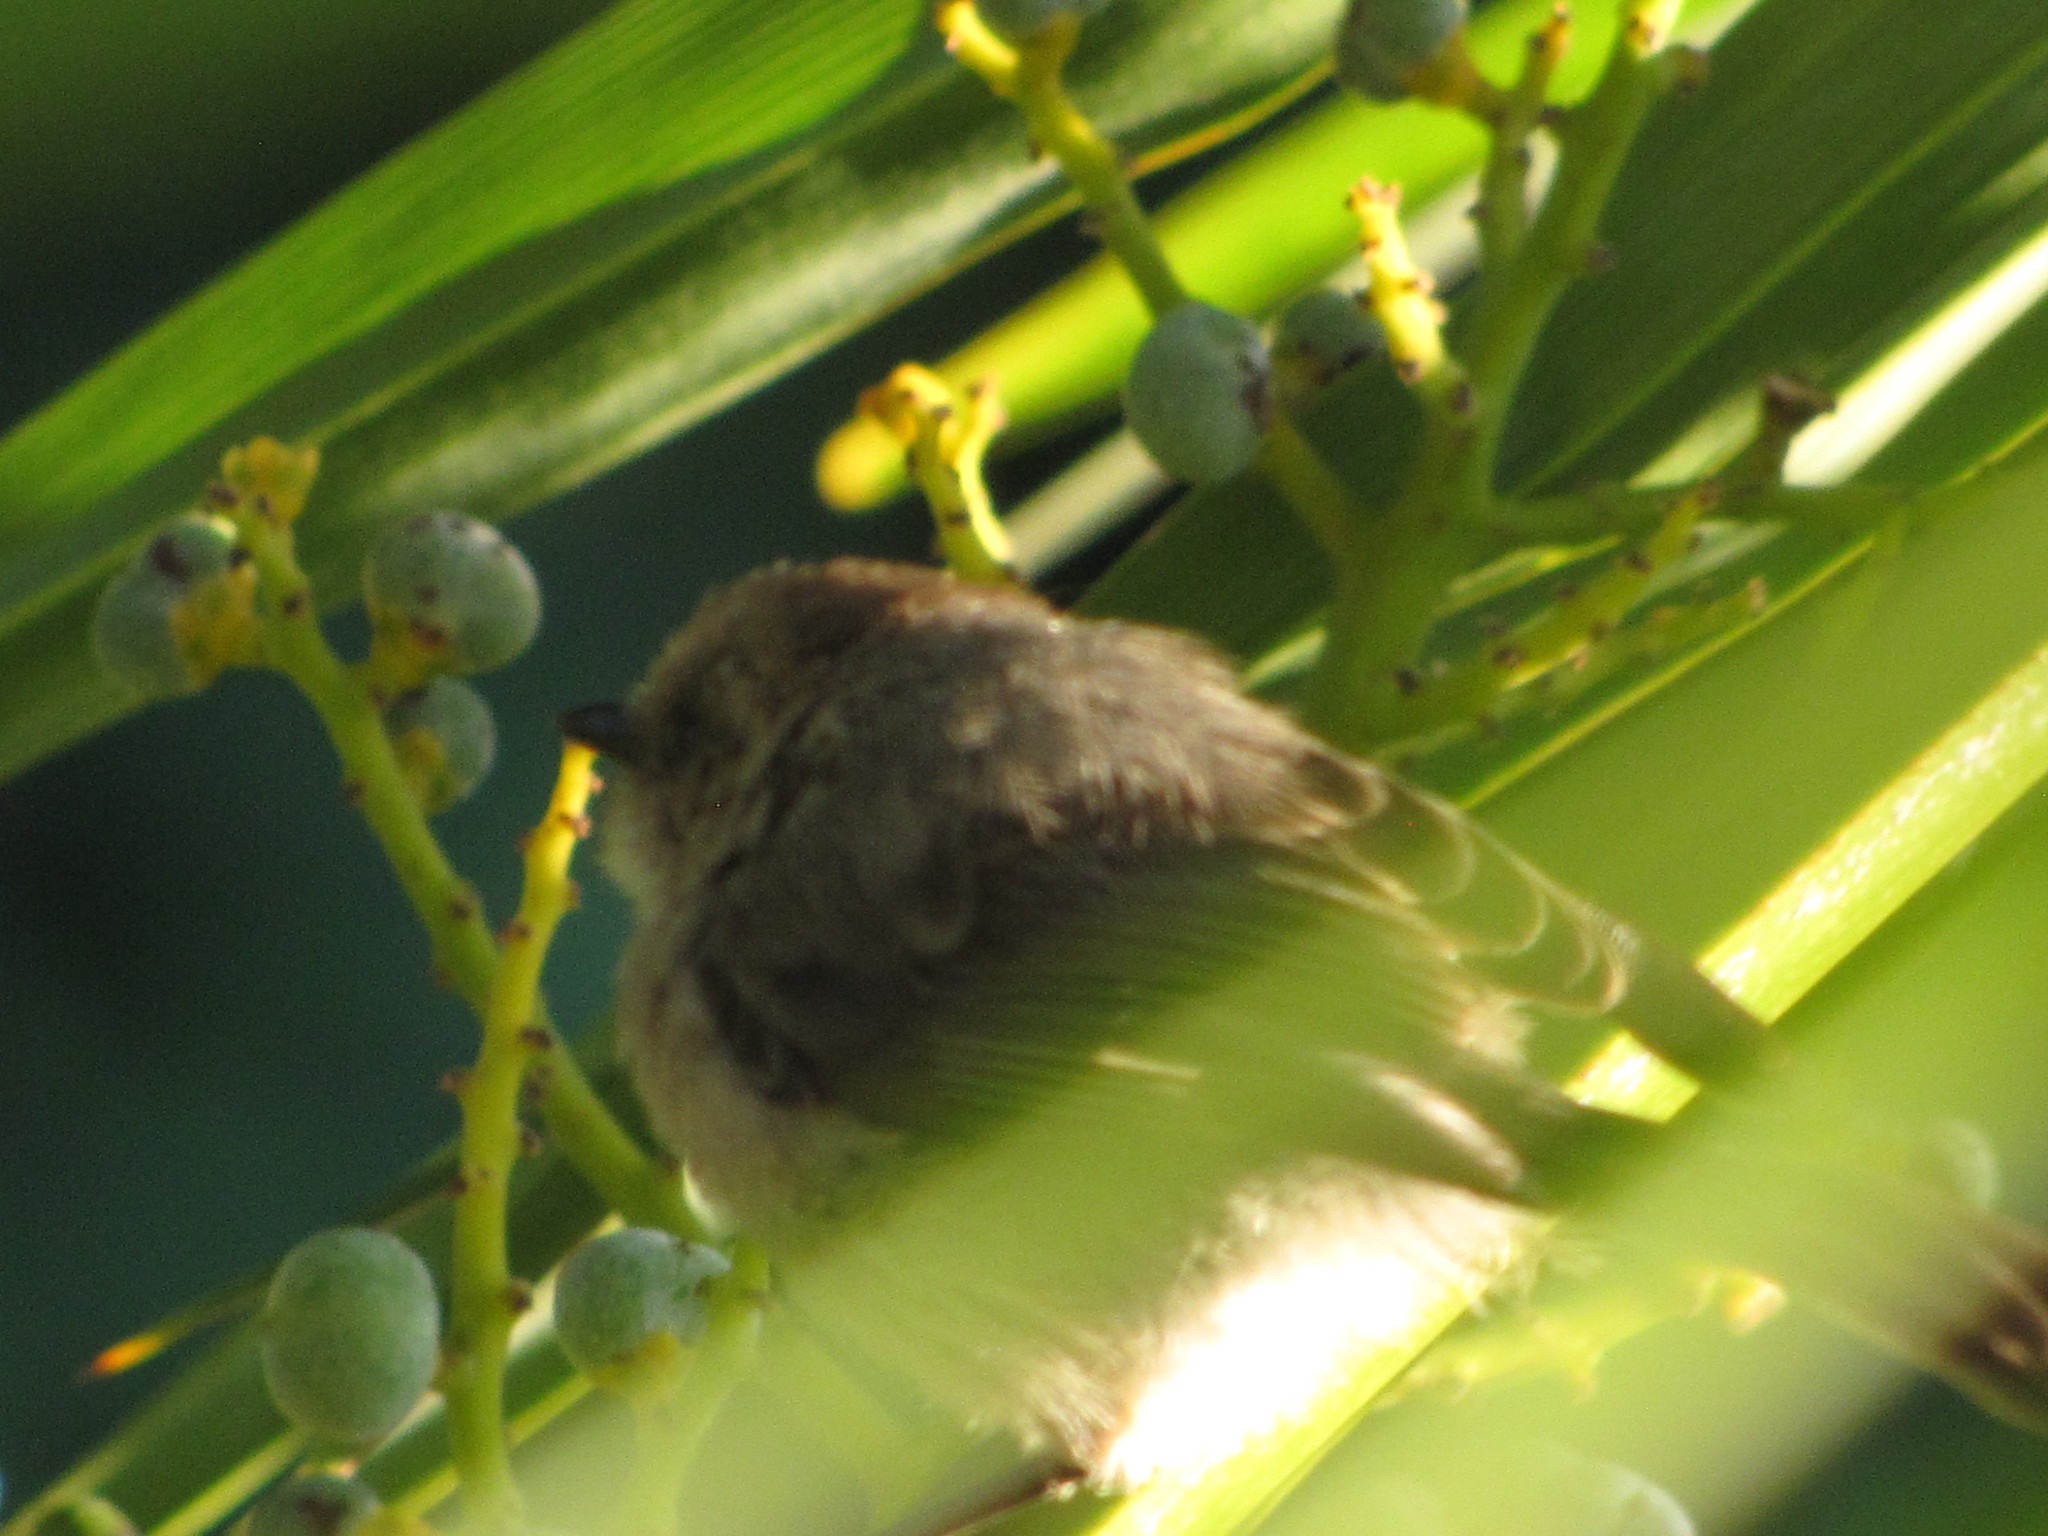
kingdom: Animalia
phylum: Chordata
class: Aves
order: Passeriformes
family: Aegithalidae
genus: Psaltriparus
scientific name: Psaltriparus minimus
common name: American bushtit
